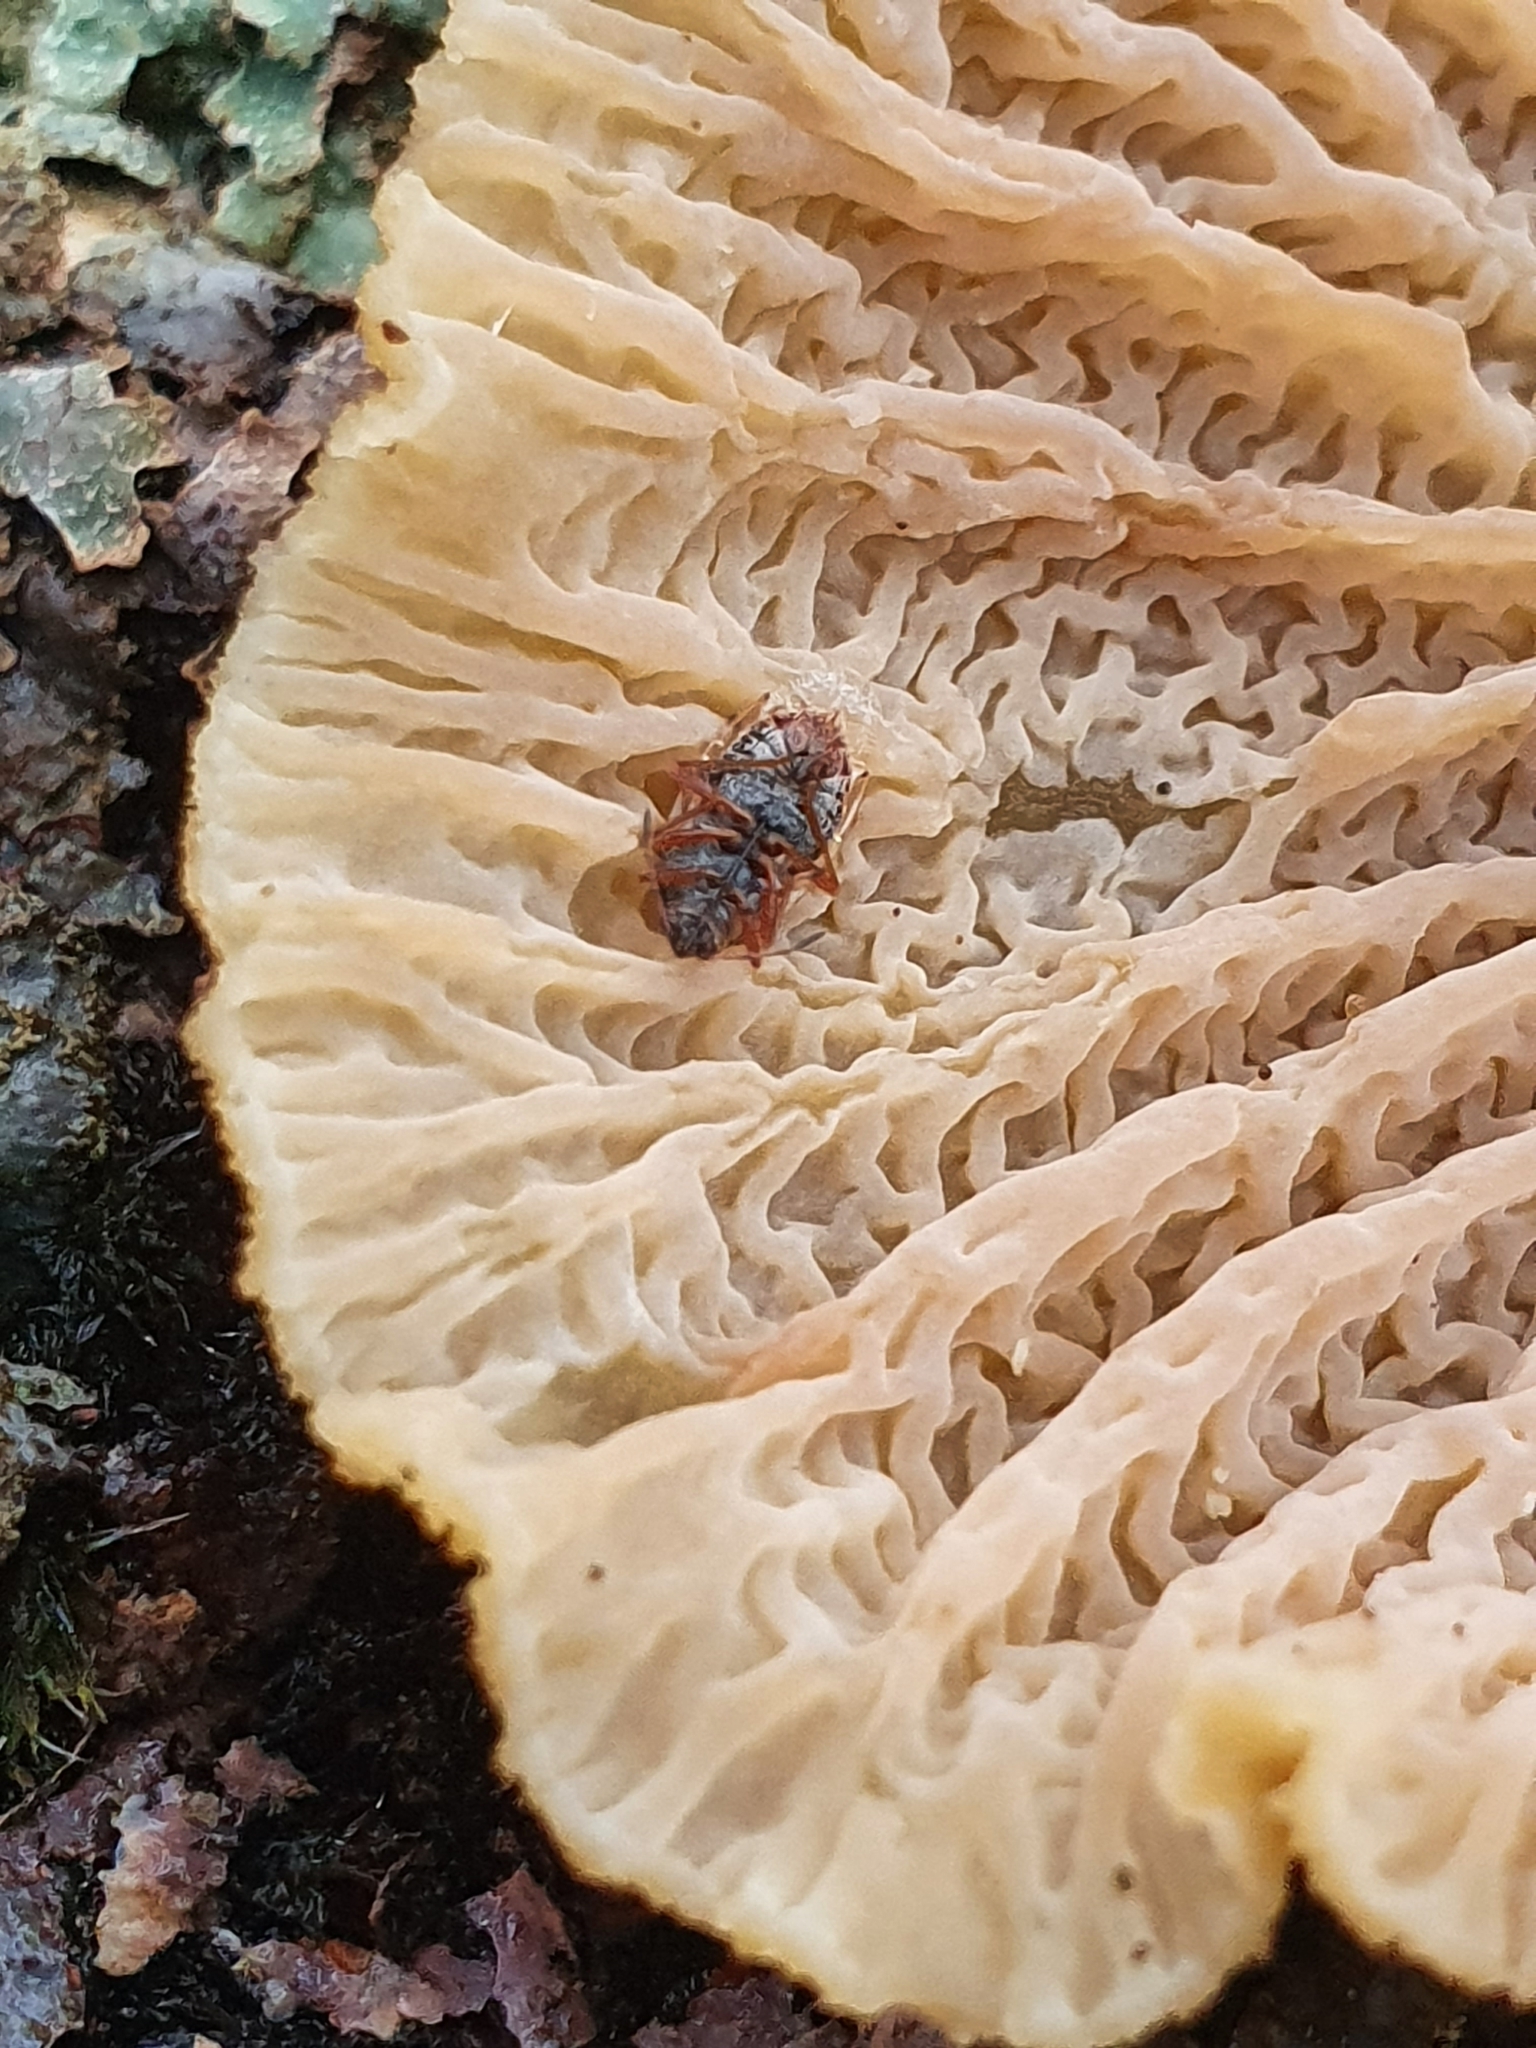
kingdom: Animalia
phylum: Arthropoda
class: Insecta
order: Hemiptera
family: Lygaeidae
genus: Kleidocerys
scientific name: Kleidocerys resedae
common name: Birch catkin bug
